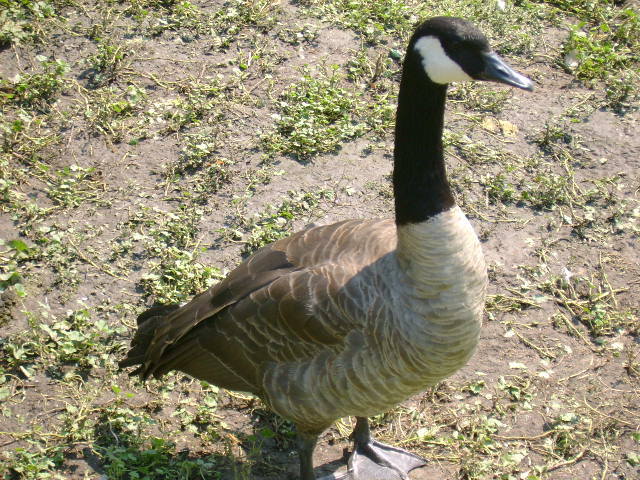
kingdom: Animalia
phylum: Chordata
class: Aves
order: Anseriformes
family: Anatidae
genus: Branta
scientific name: Branta canadensis
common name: Canada goose
